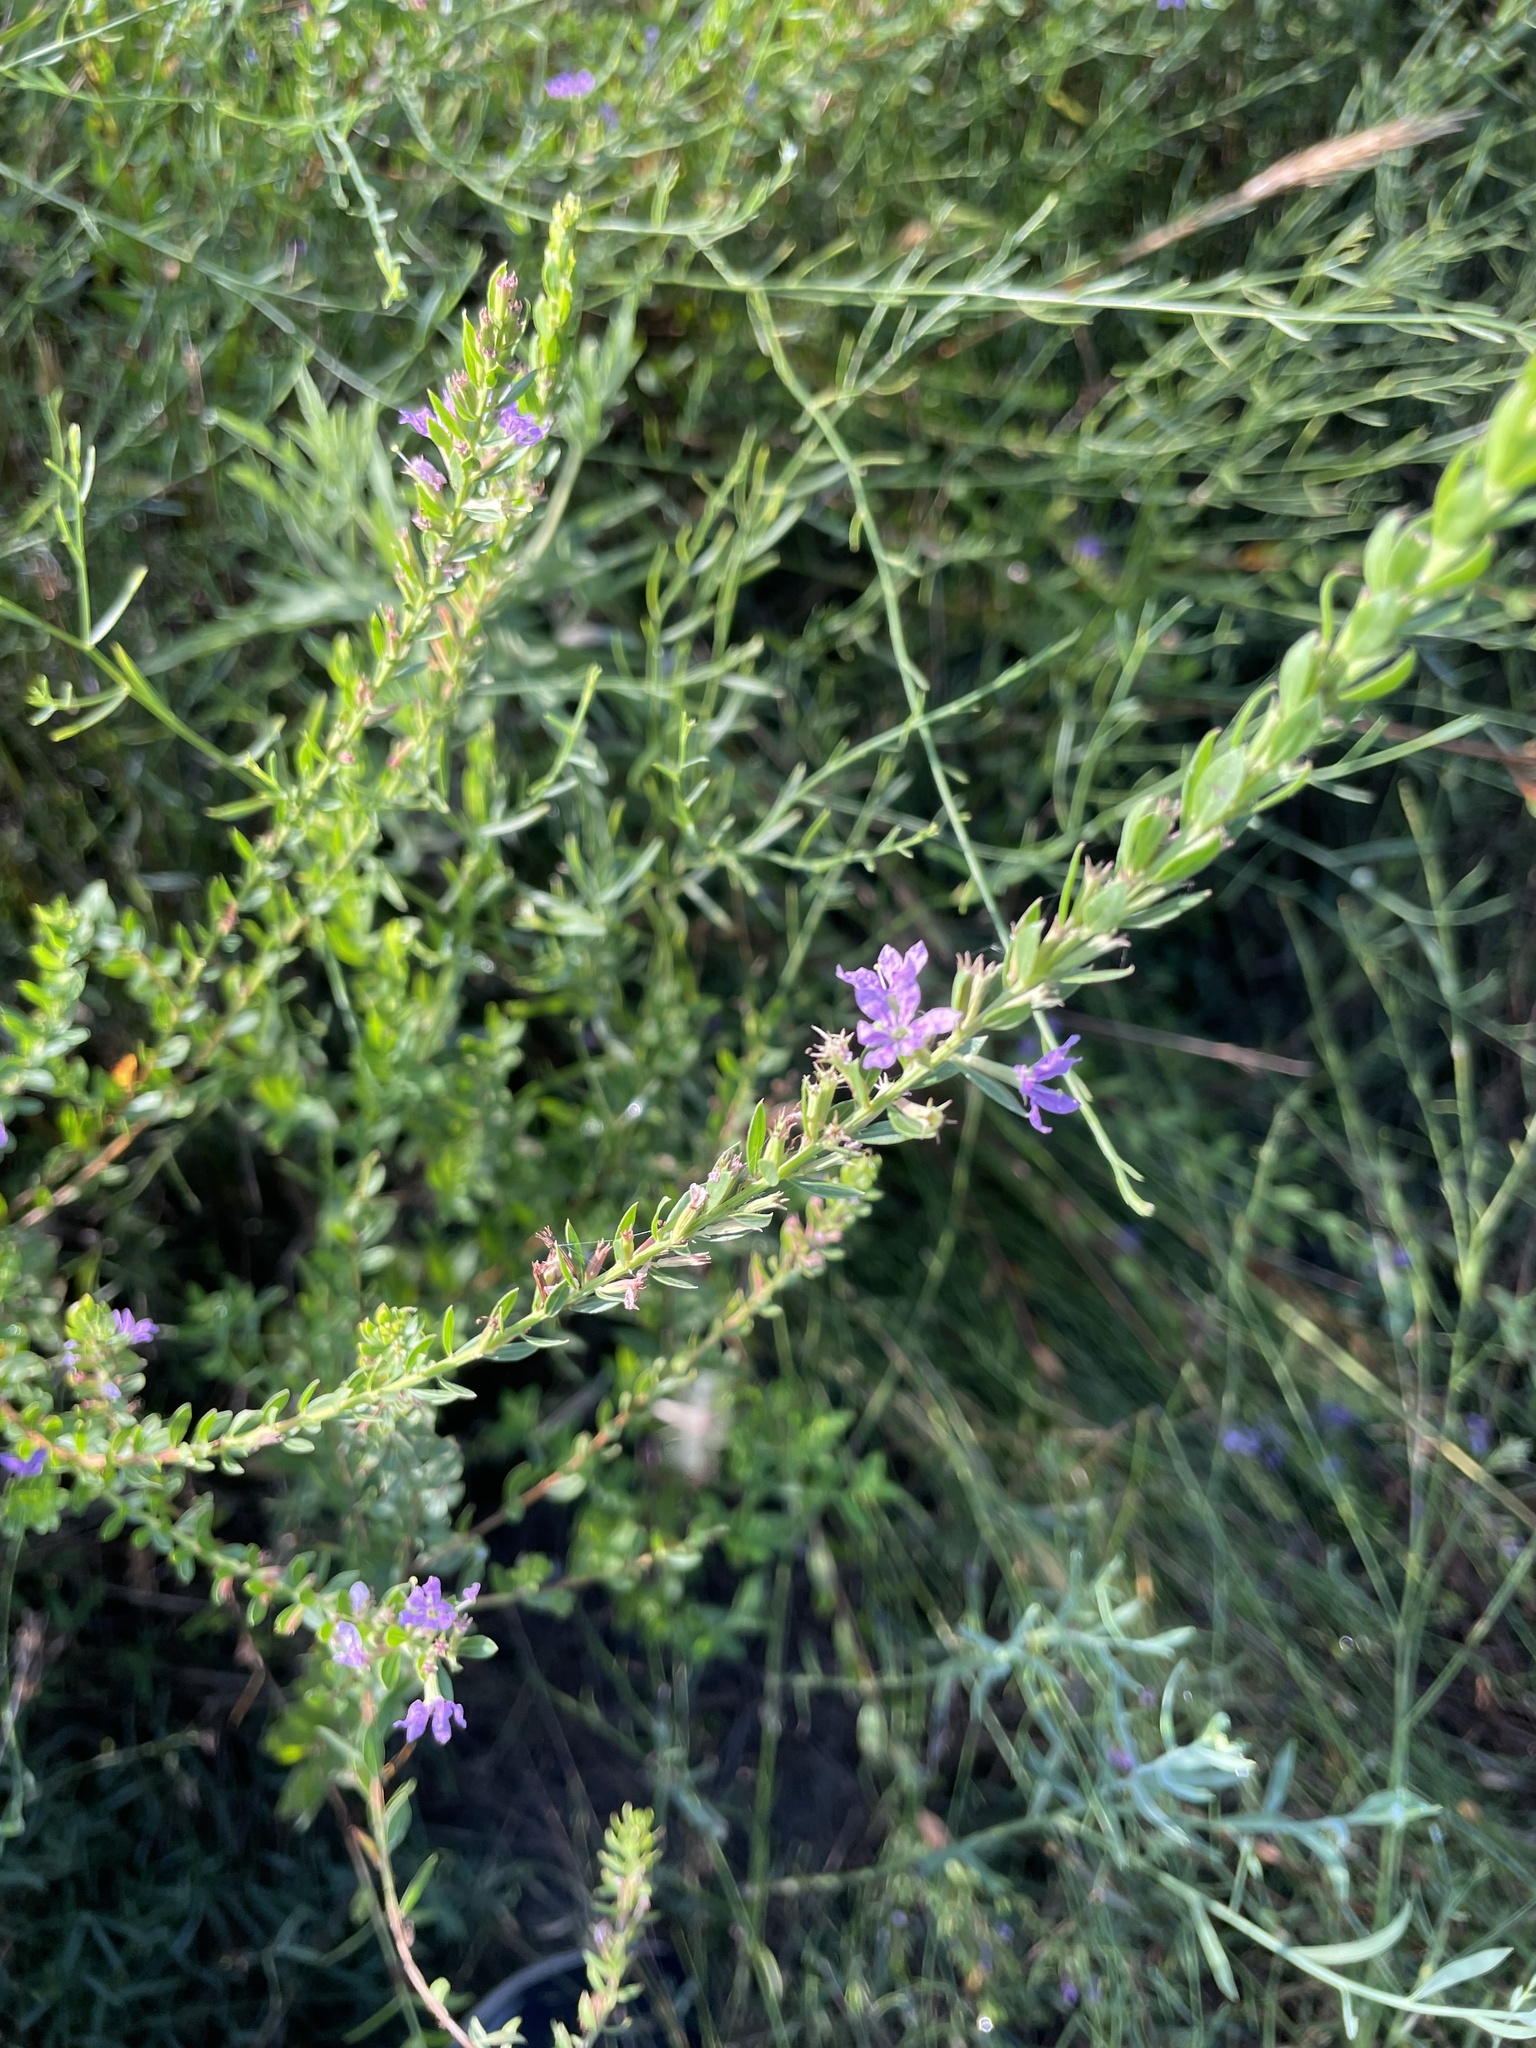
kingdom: Plantae
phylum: Tracheophyta
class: Magnoliopsida
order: Myrtales
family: Lythraceae
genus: Lythrum
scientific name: Lythrum alatum
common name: Winged loosestrife
